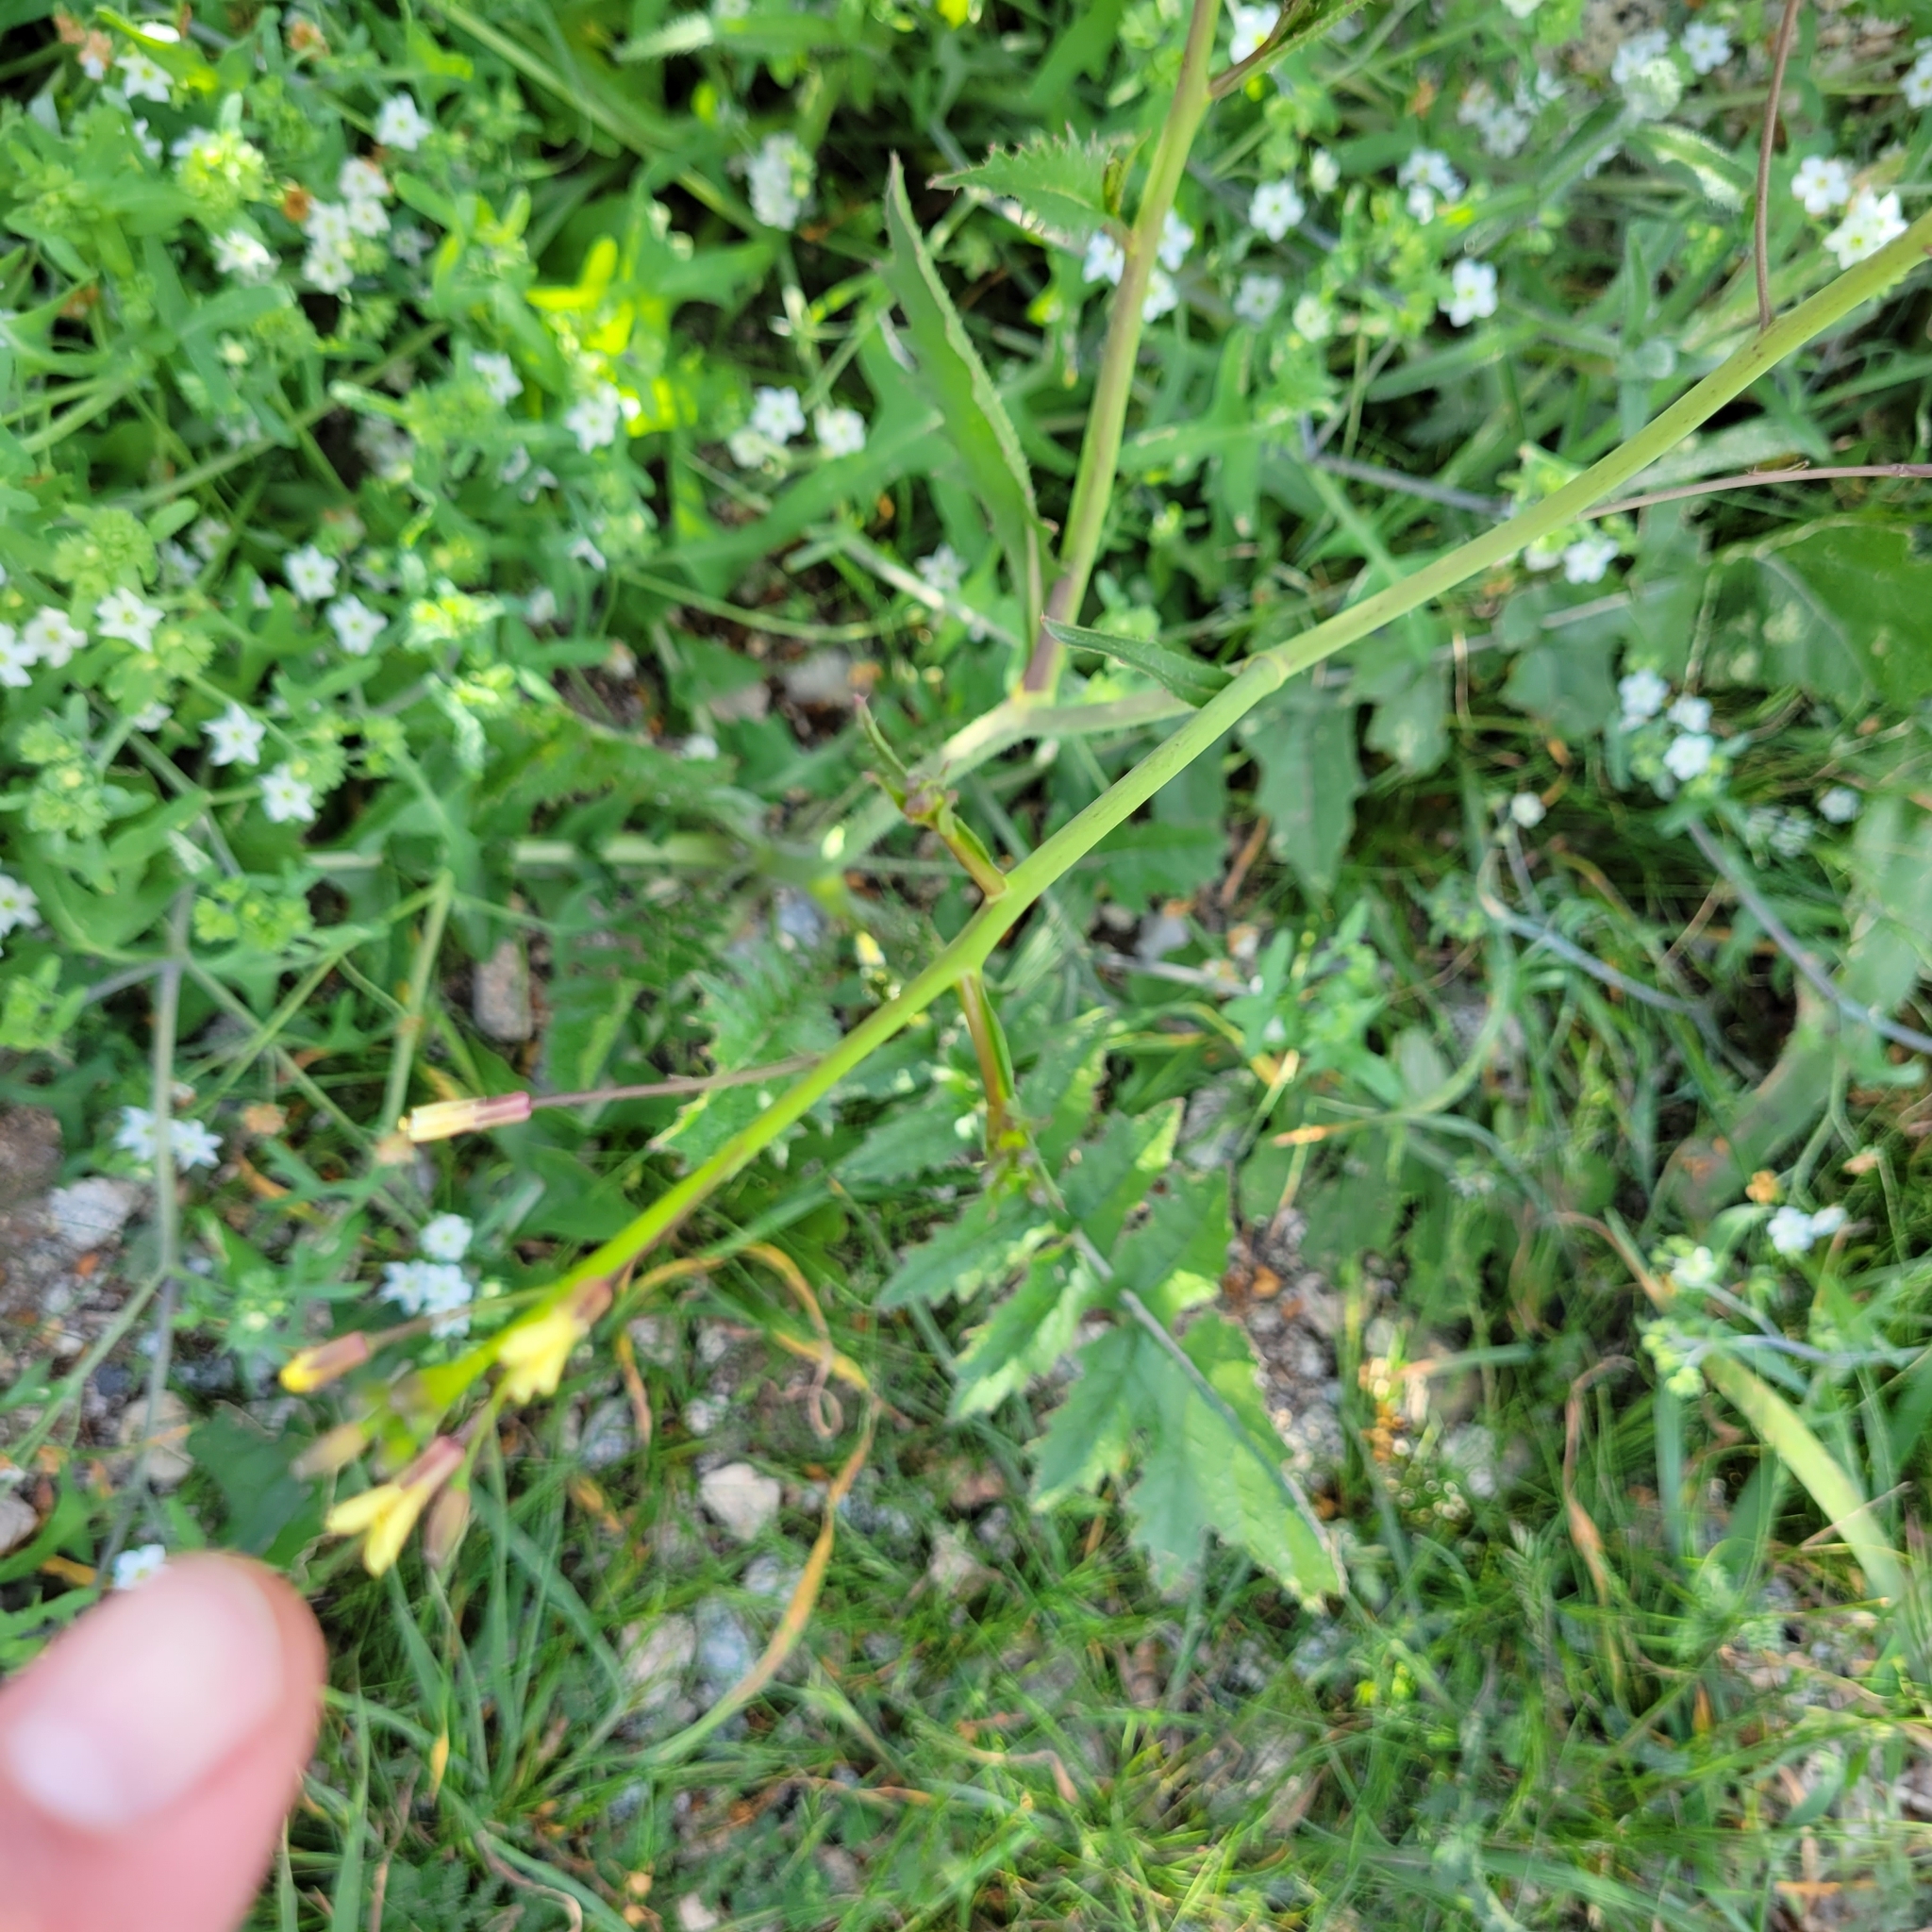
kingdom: Plantae
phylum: Tracheophyta
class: Magnoliopsida
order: Brassicales
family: Brassicaceae
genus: Brassica
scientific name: Brassica tournefortii
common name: Pale cabbage
